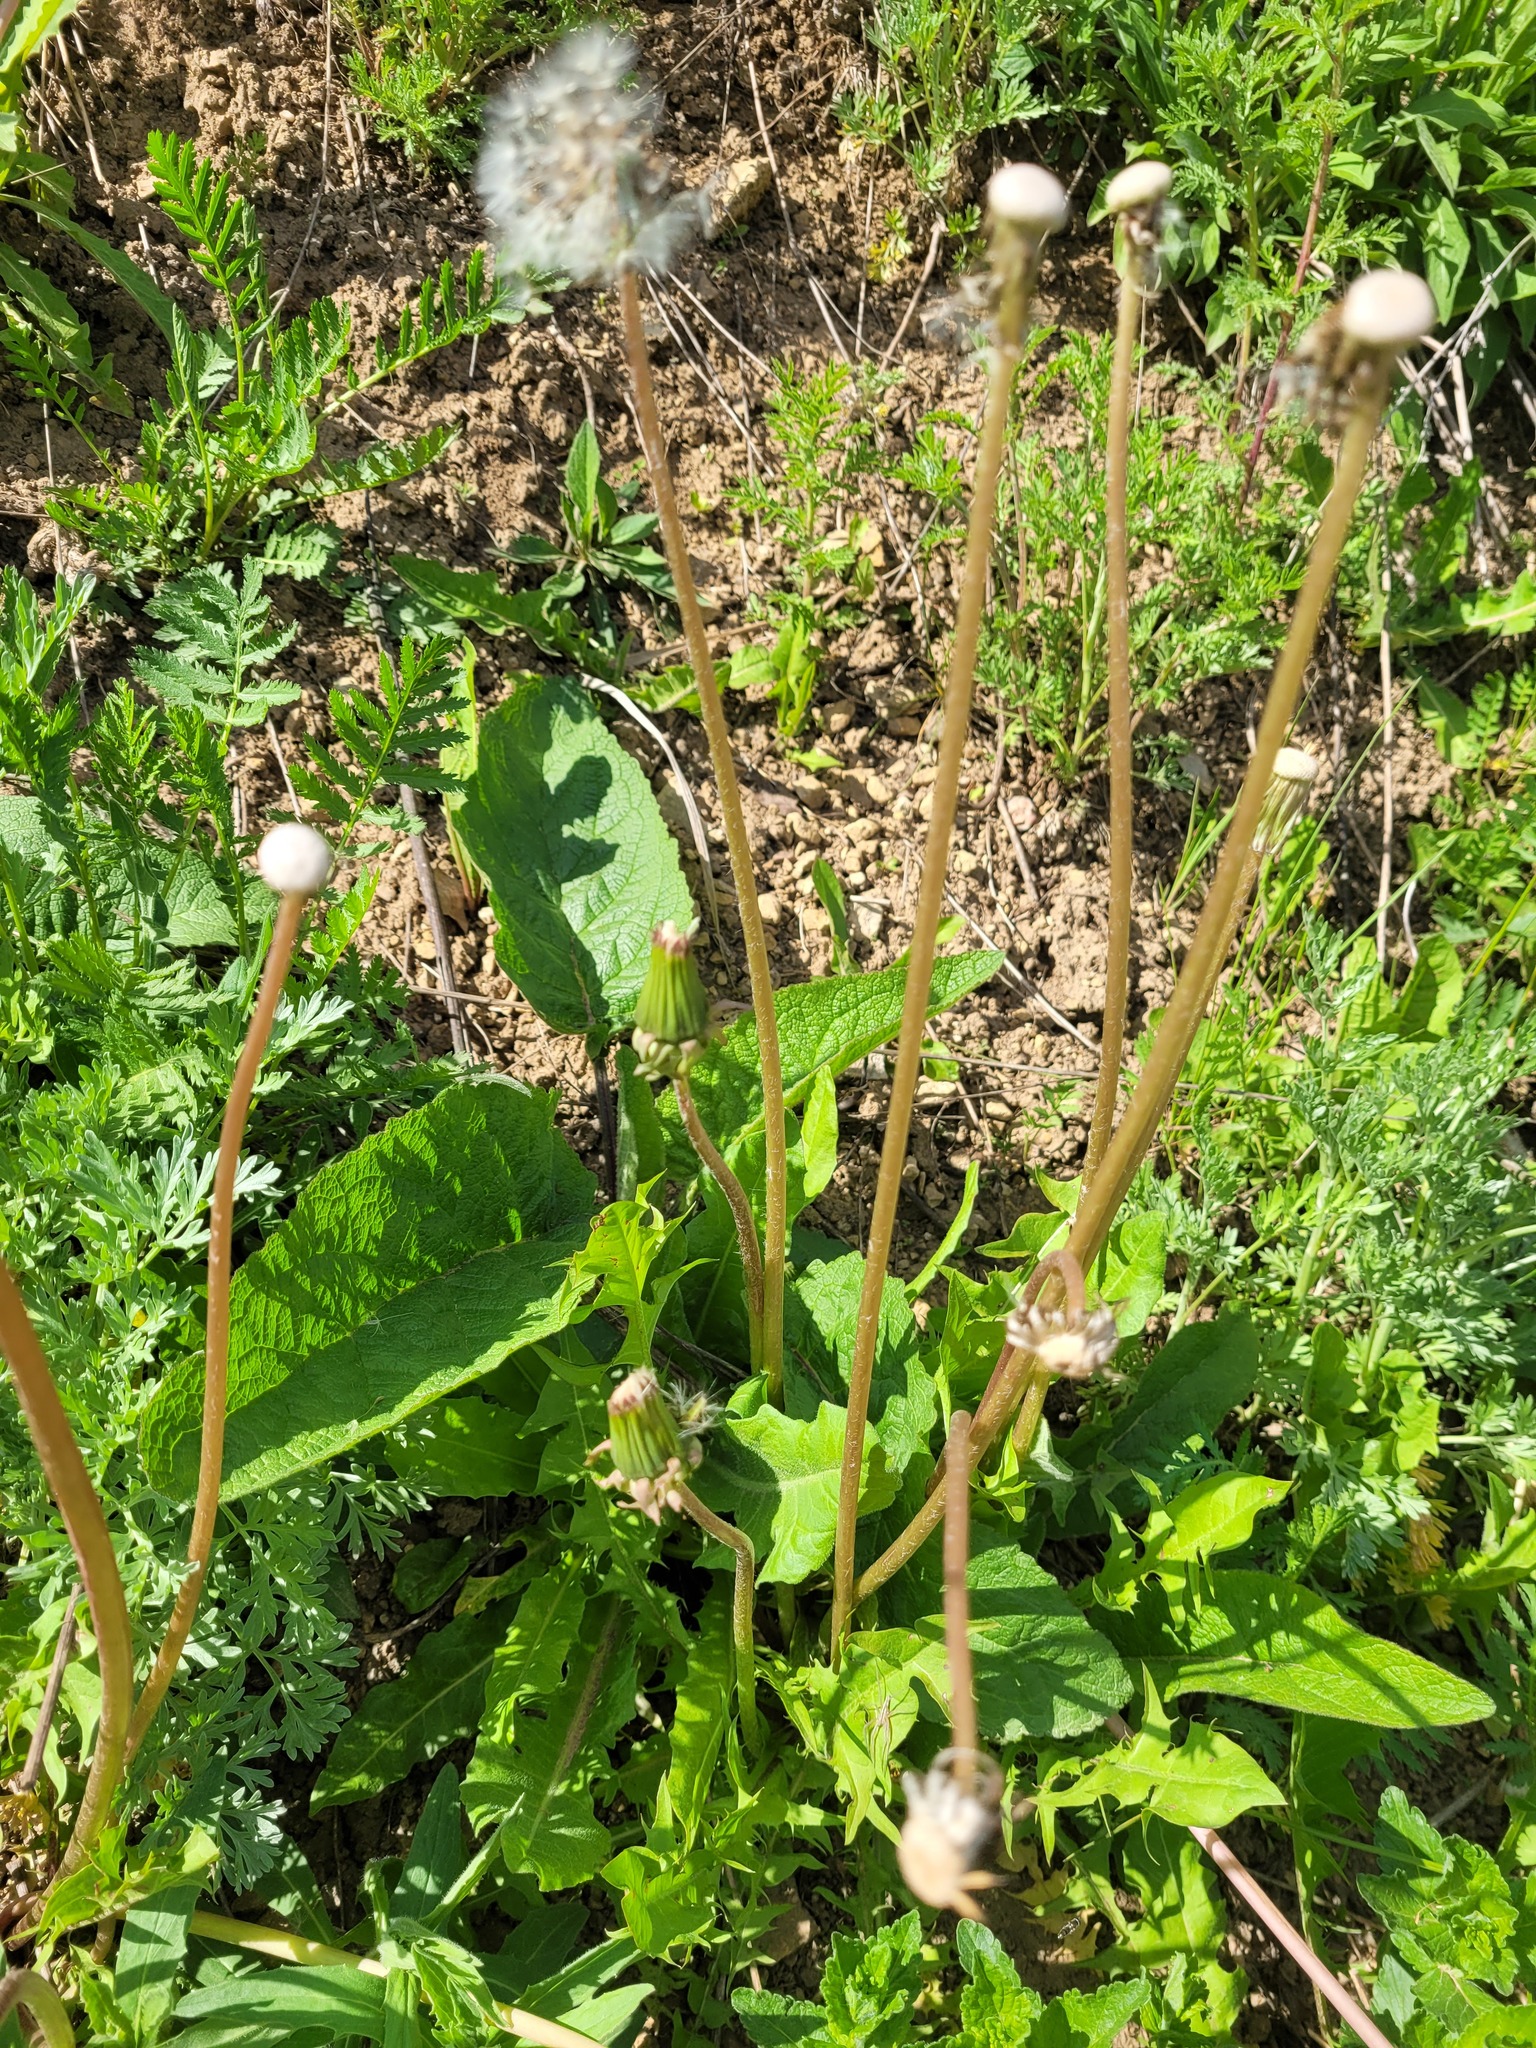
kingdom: Plantae
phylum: Tracheophyta
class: Magnoliopsida
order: Lamiales
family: Scrophulariaceae
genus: Verbascum
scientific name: Verbascum nigrum
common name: Dark mullein
